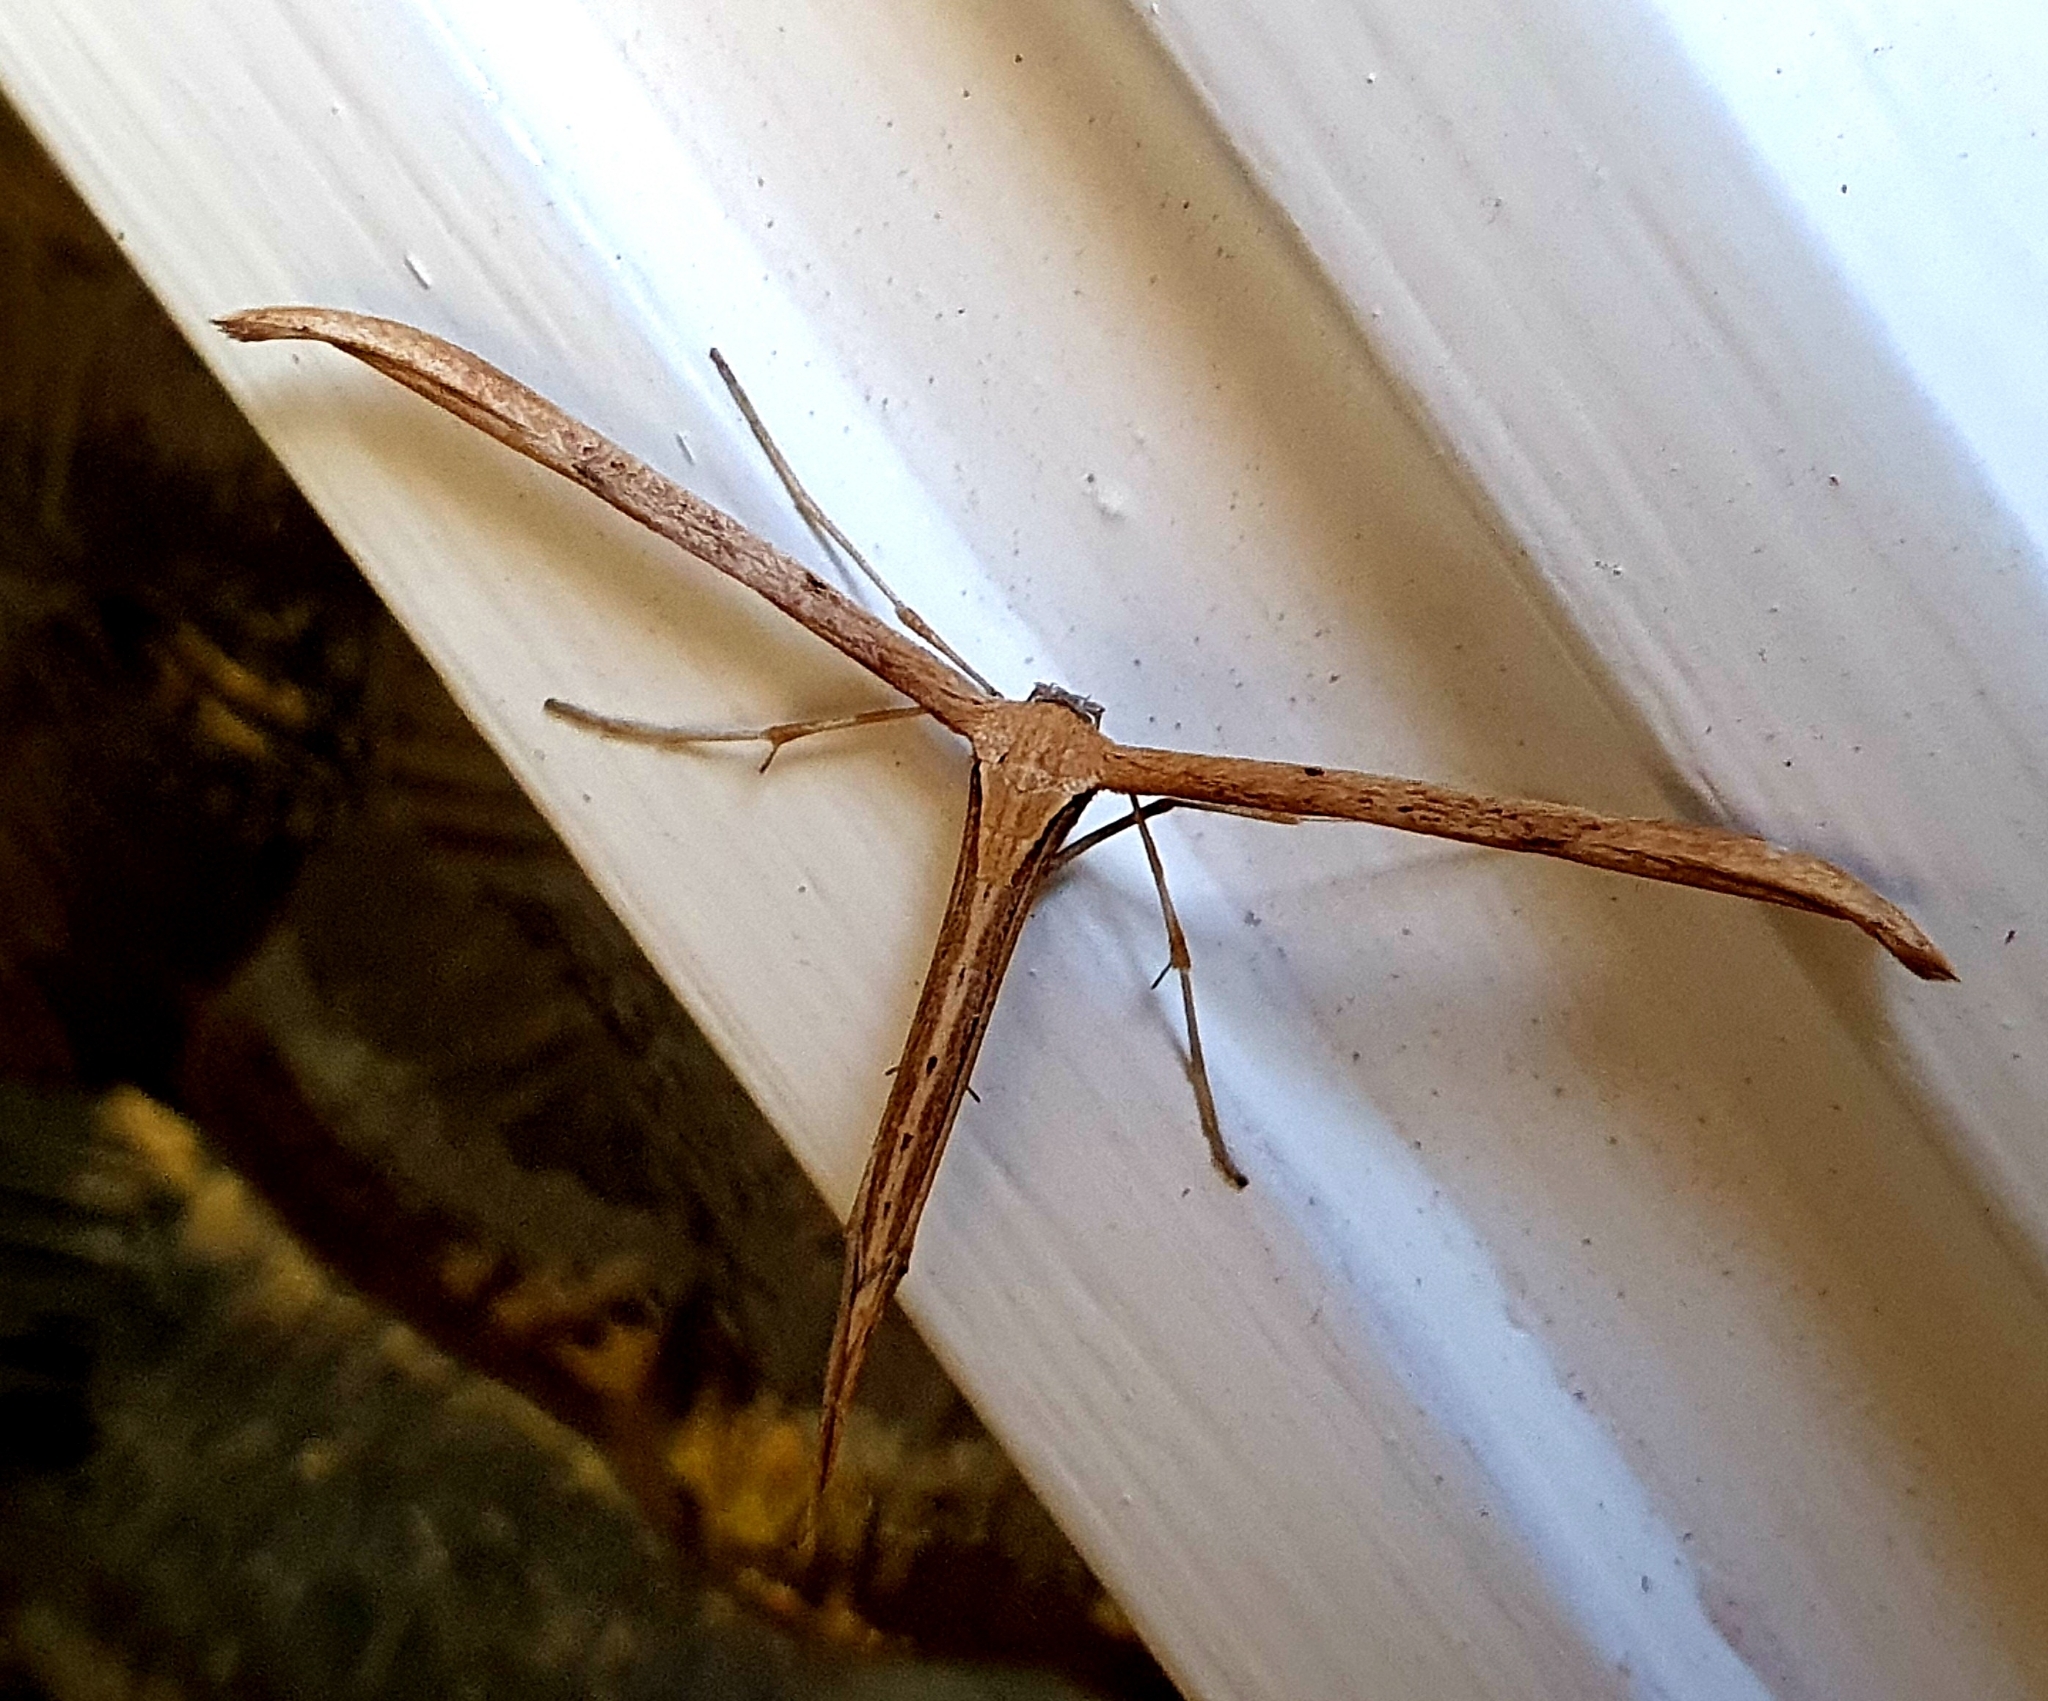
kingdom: Animalia
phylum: Arthropoda
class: Insecta
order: Lepidoptera
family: Pterophoridae
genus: Emmelina
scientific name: Emmelina monodactyla
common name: Common plume
